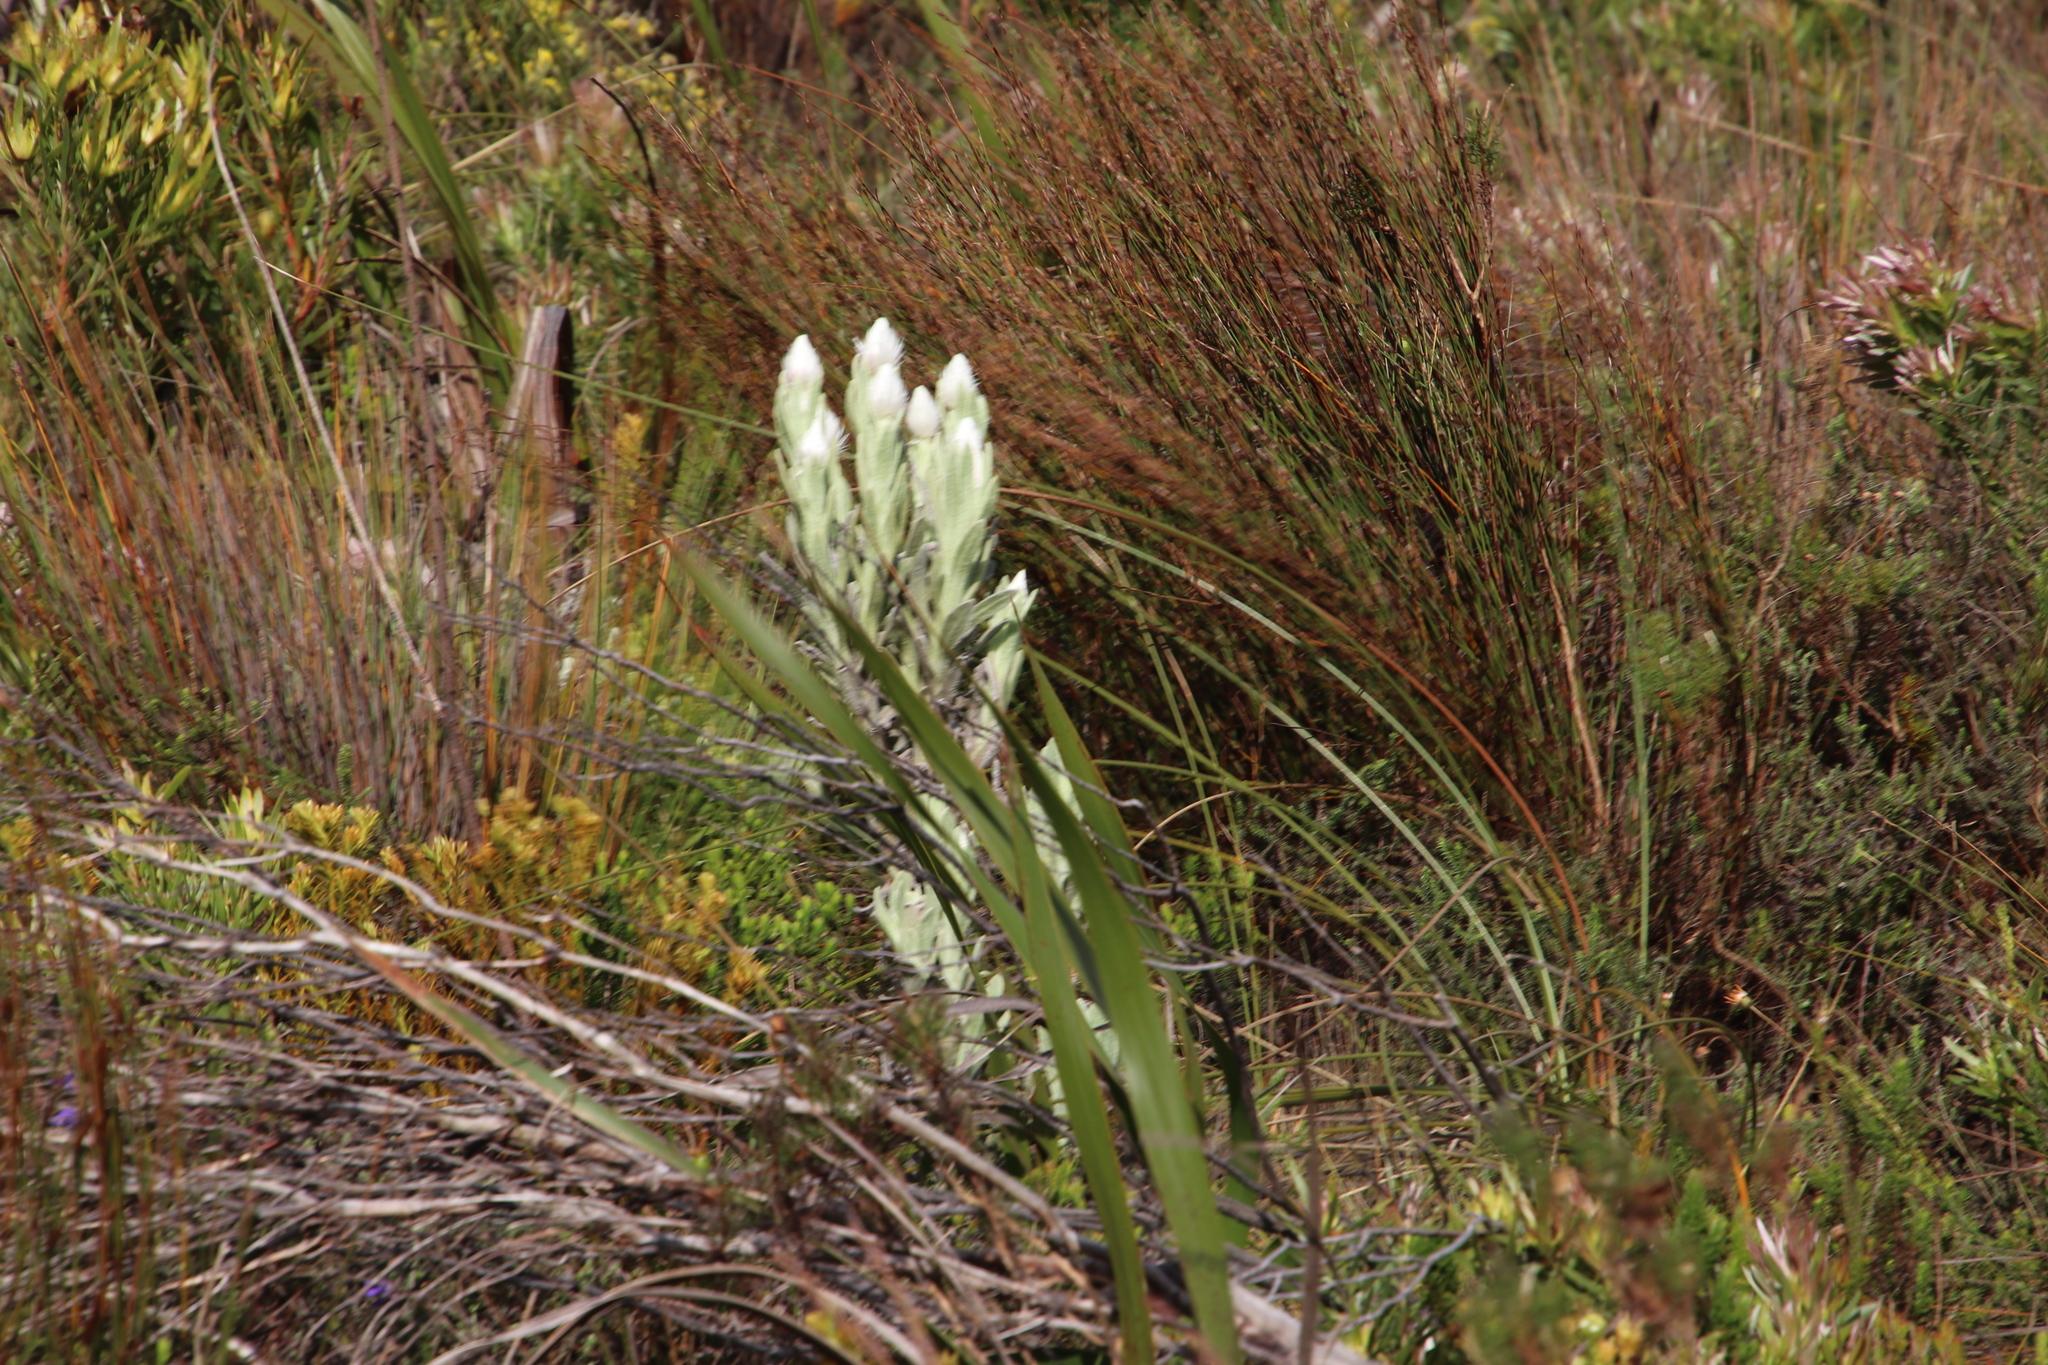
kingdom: Plantae
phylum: Tracheophyta
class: Magnoliopsida
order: Asterales
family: Asteraceae
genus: Syncarpha
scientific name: Syncarpha vestita
